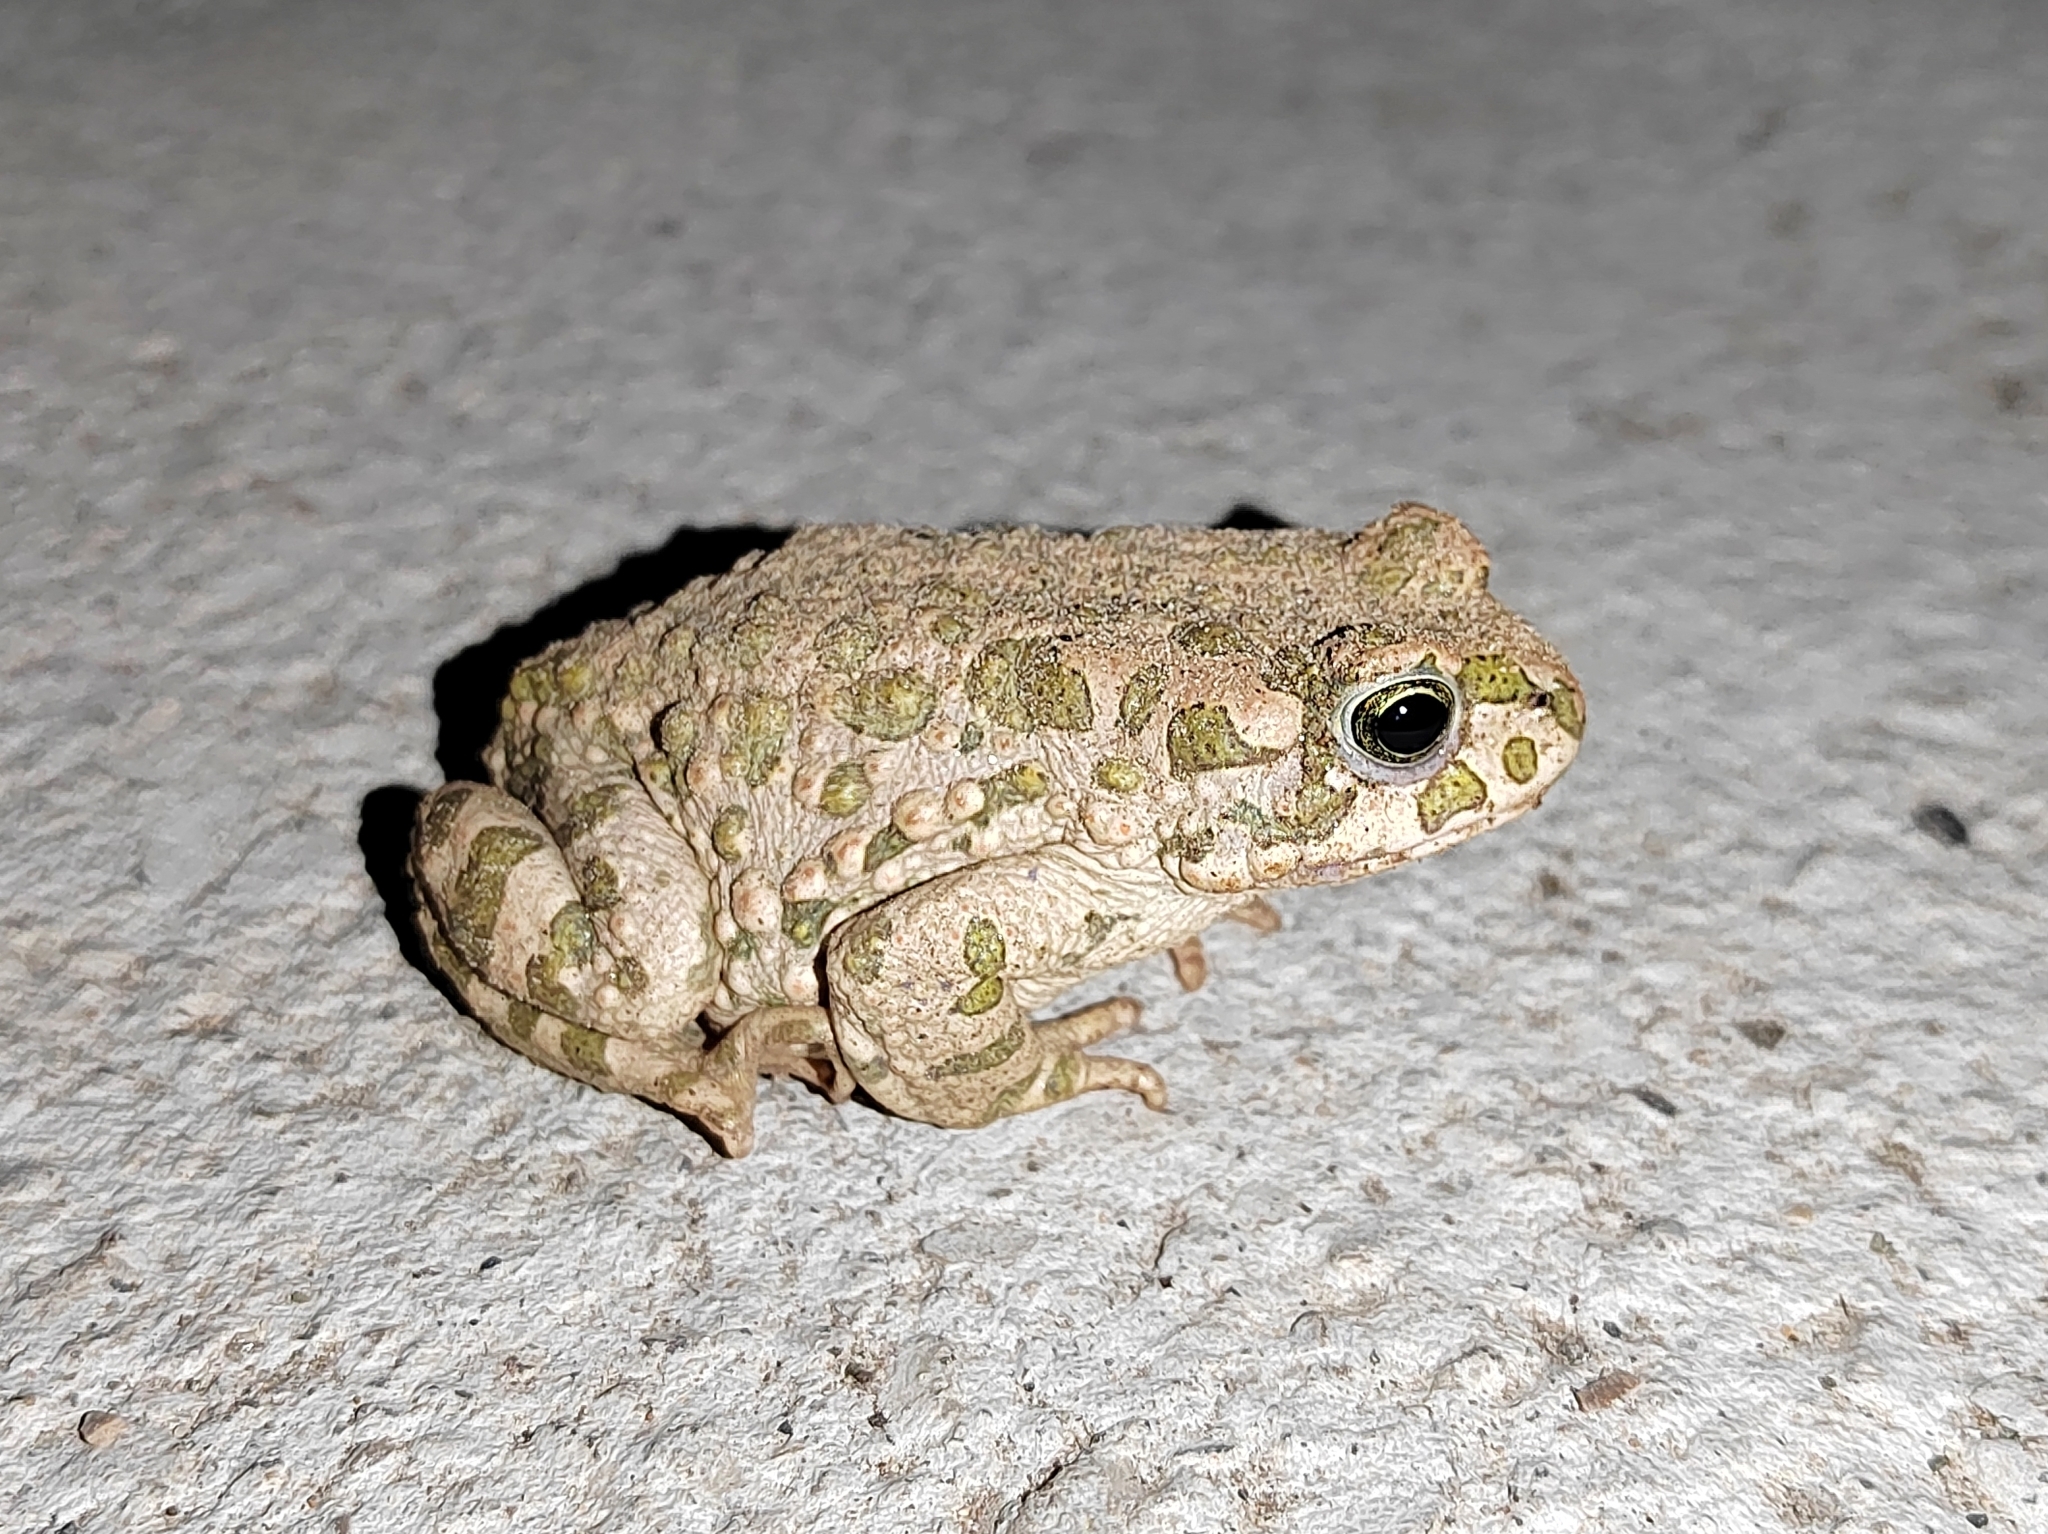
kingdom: Animalia
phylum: Chordata
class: Amphibia
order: Anura
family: Bufonidae
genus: Bufotes
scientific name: Bufotes viridis
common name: European green toad
